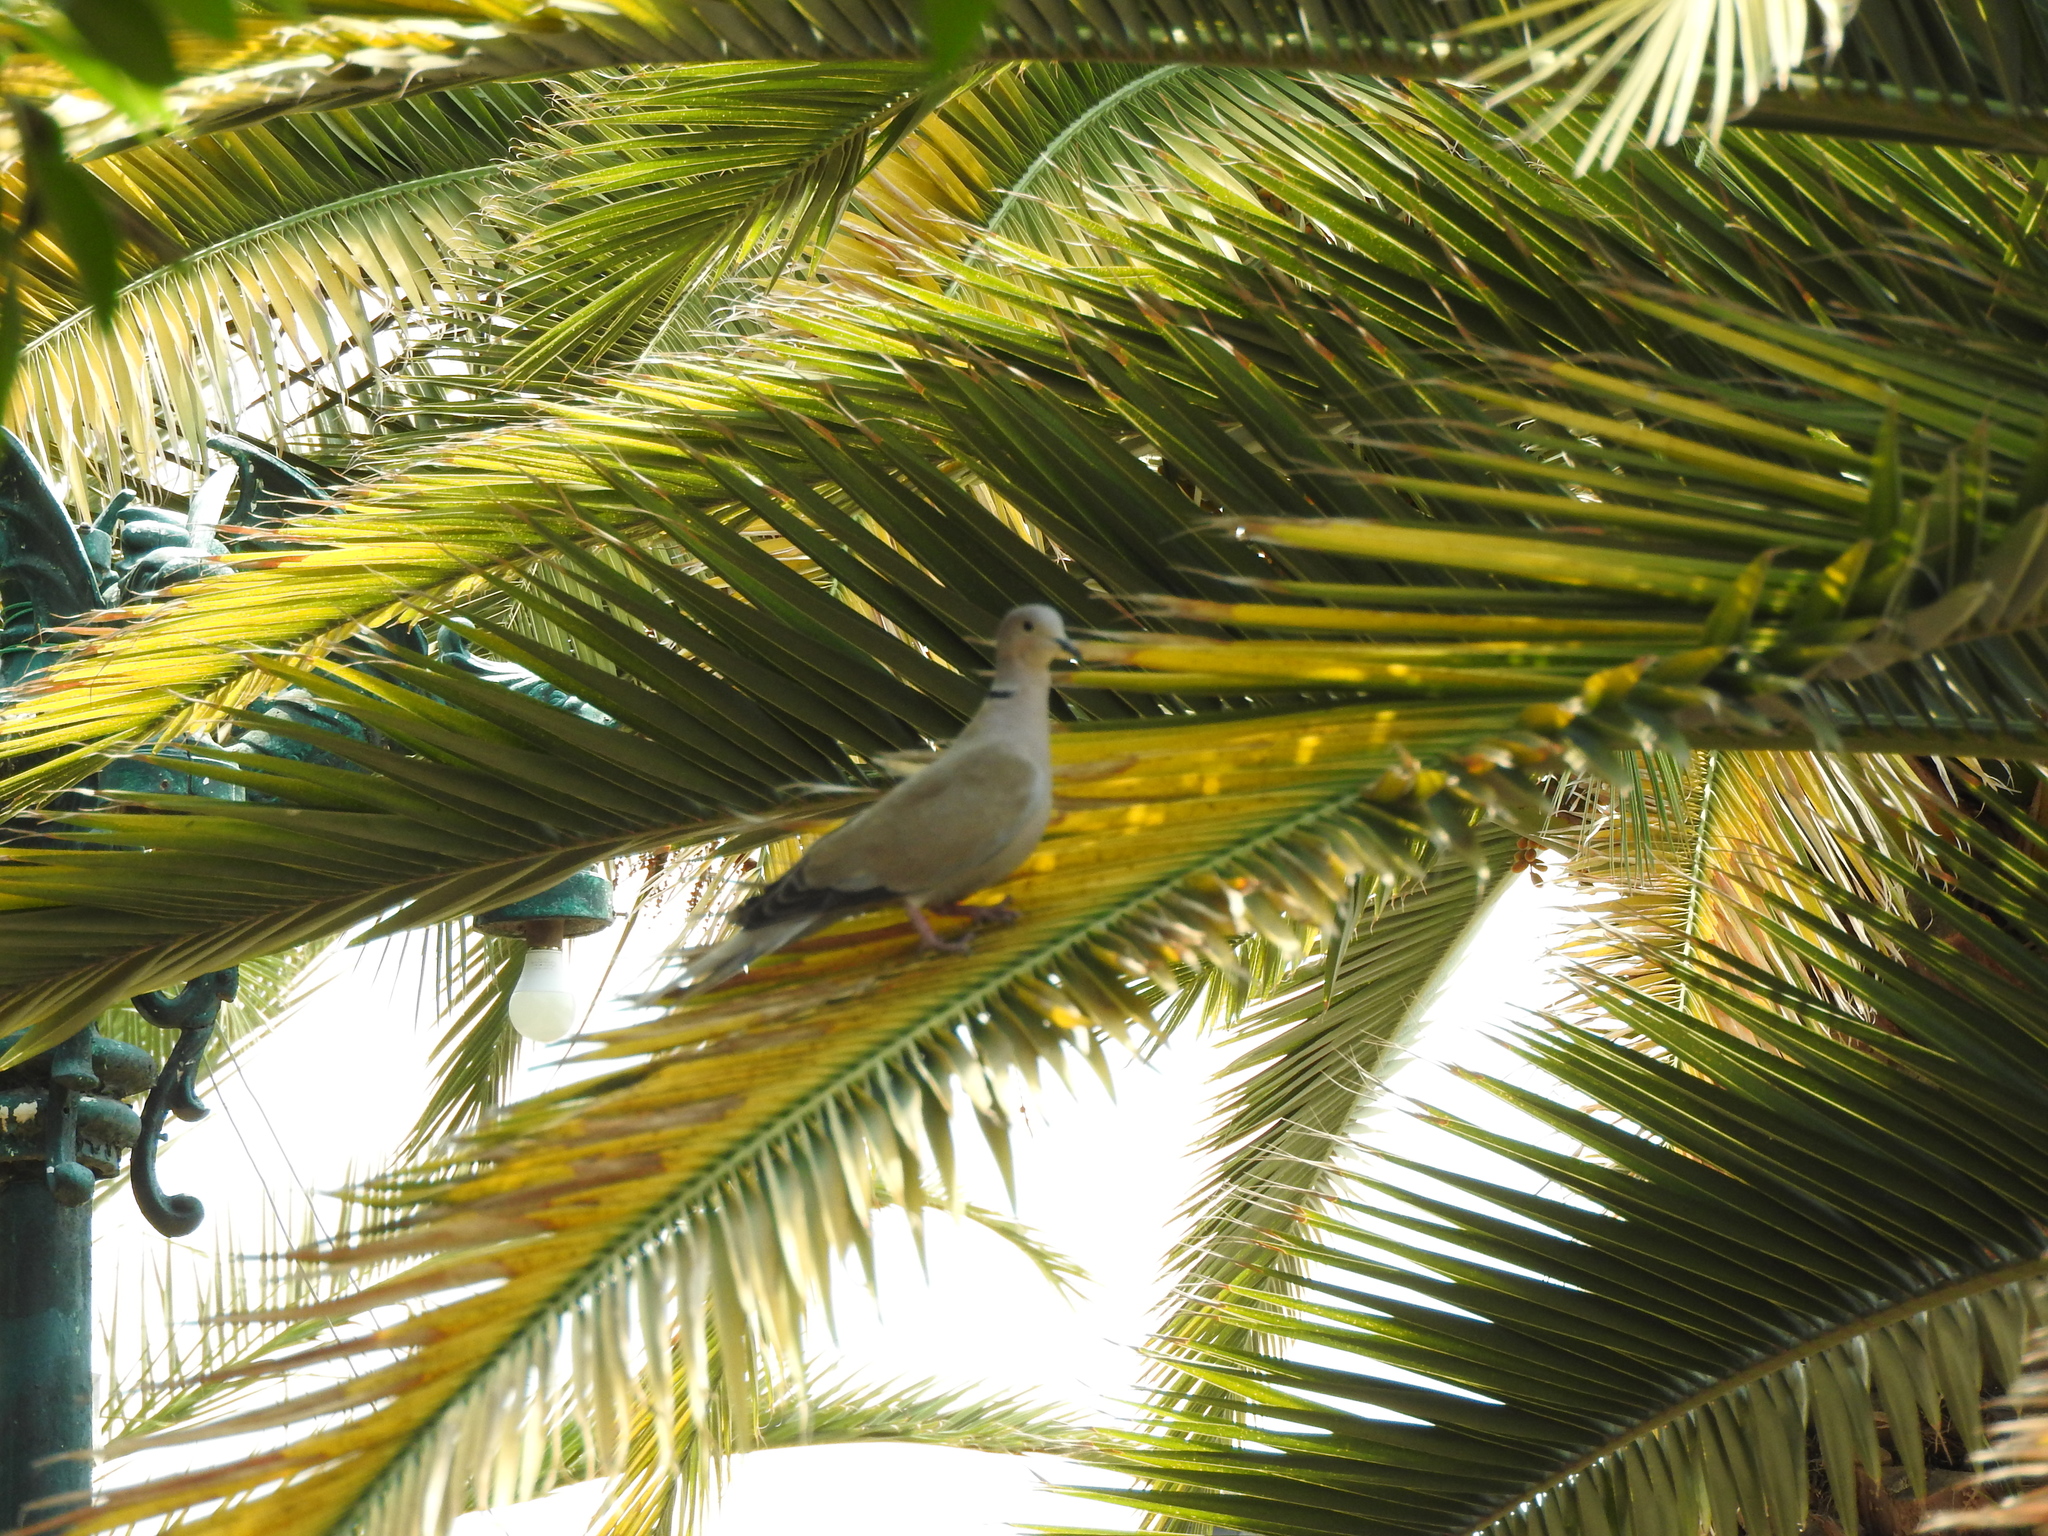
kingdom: Animalia
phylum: Chordata
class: Aves
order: Columbiformes
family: Columbidae
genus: Streptopelia
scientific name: Streptopelia decaocto
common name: Eurasian collared dove
